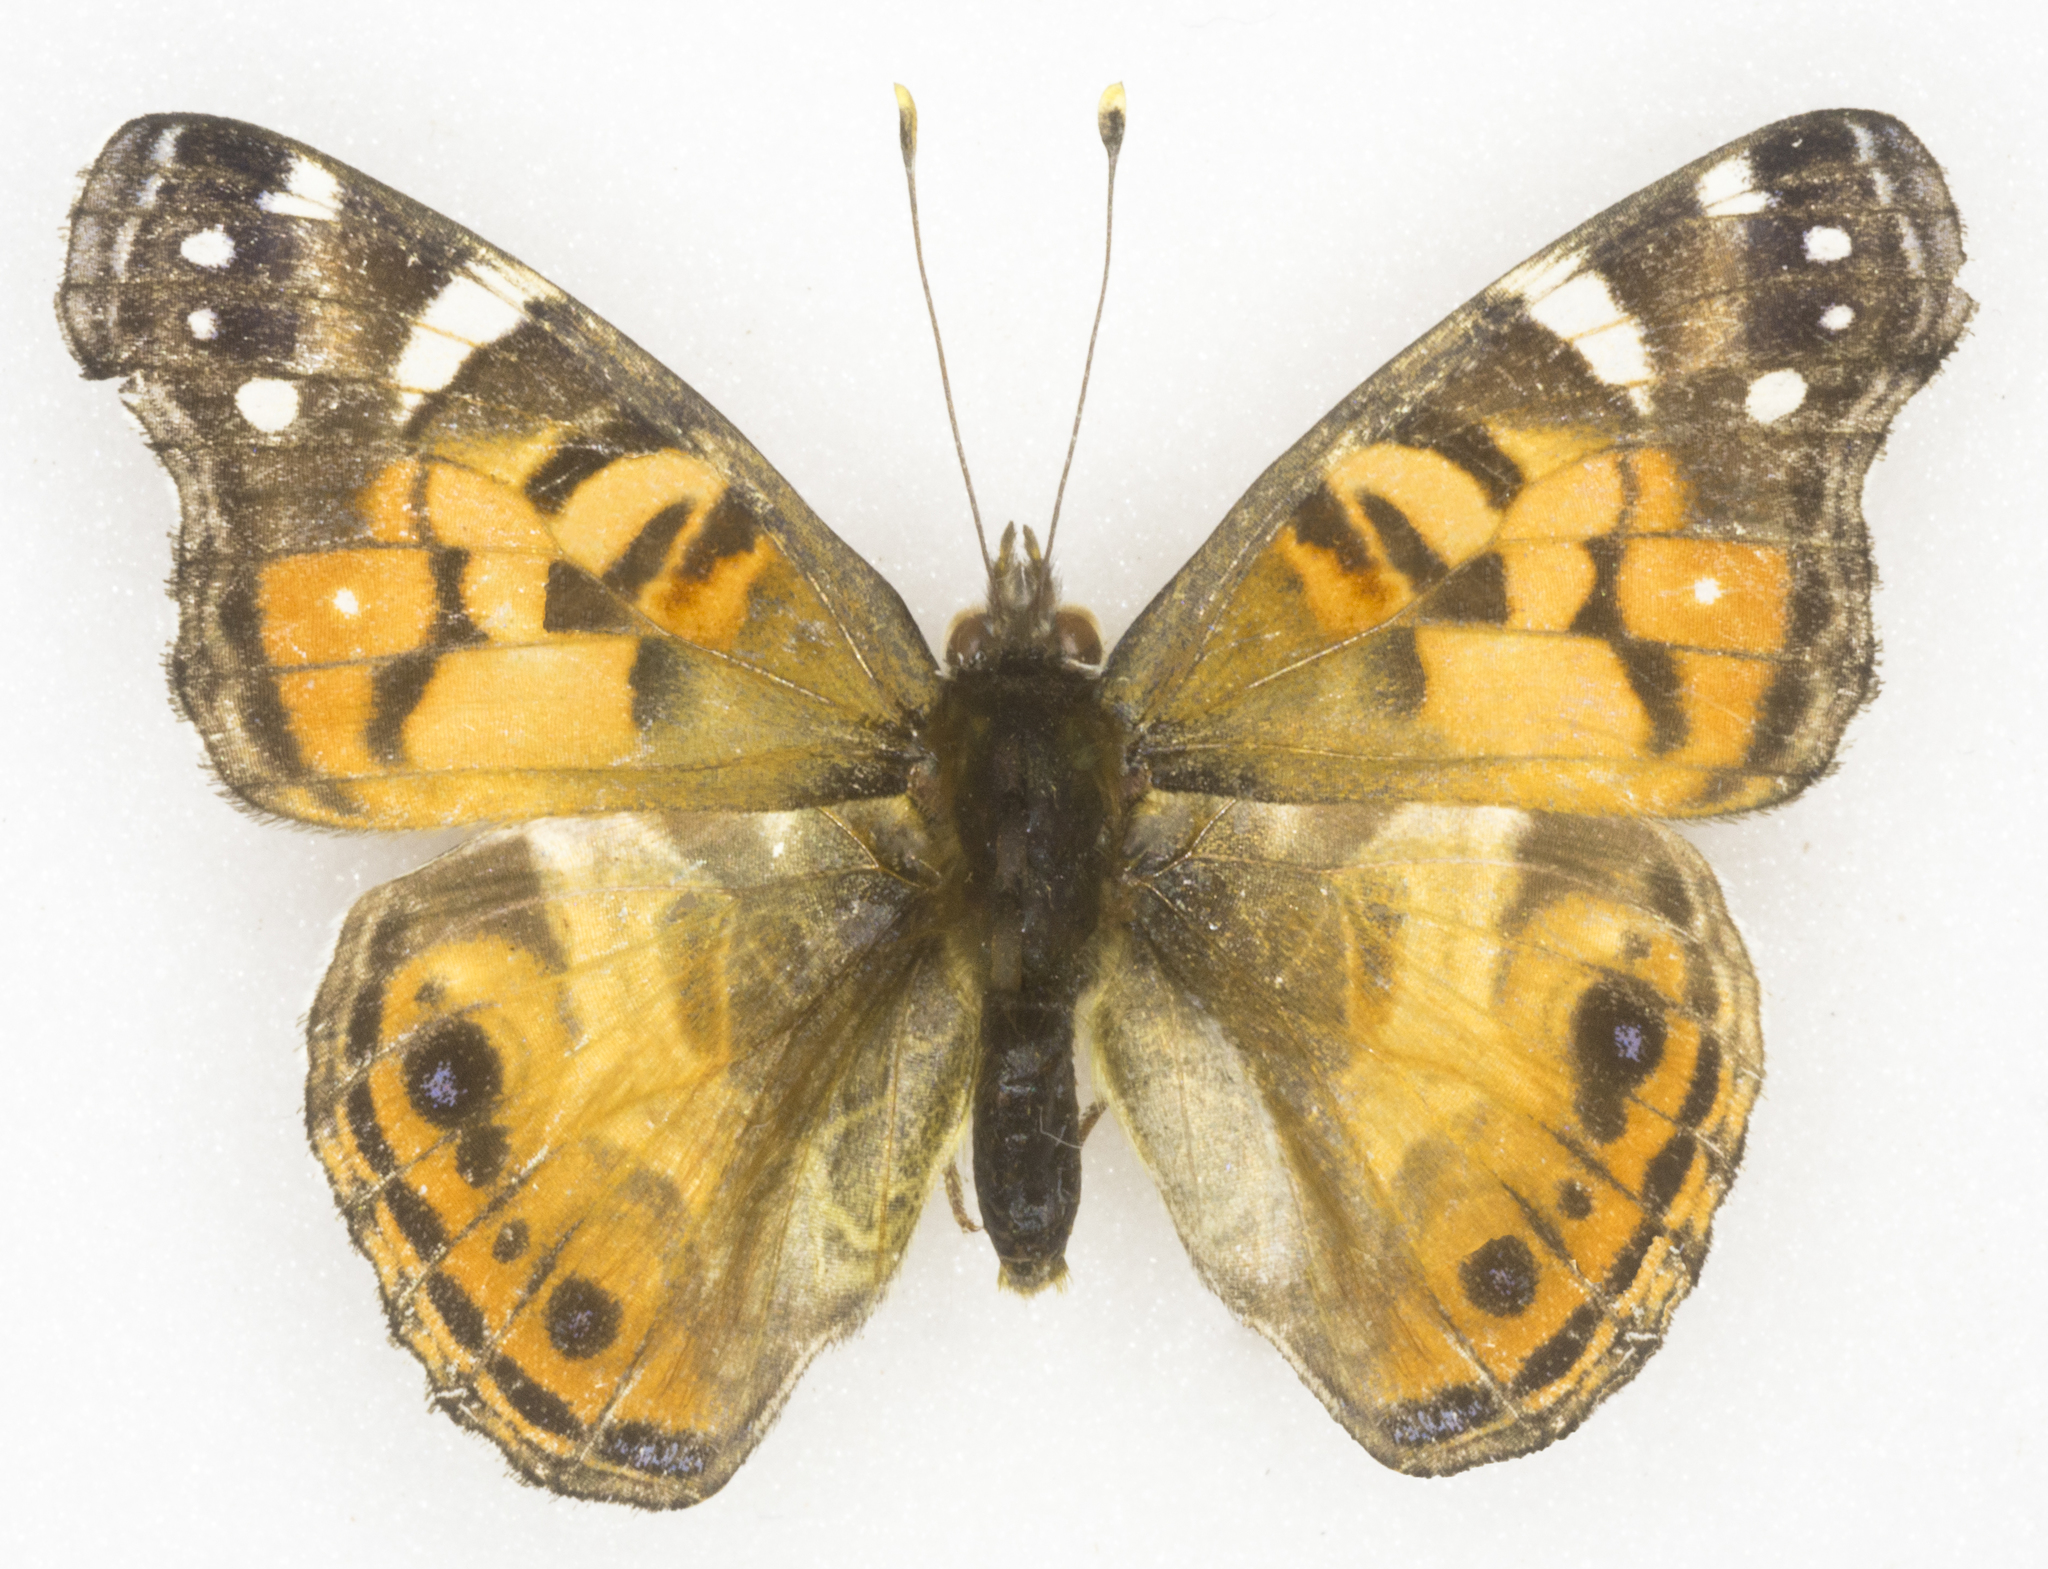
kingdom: Animalia
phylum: Arthropoda
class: Insecta
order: Lepidoptera
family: Nymphalidae
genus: Vanessa
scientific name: Vanessa virginiensis
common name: American lady
